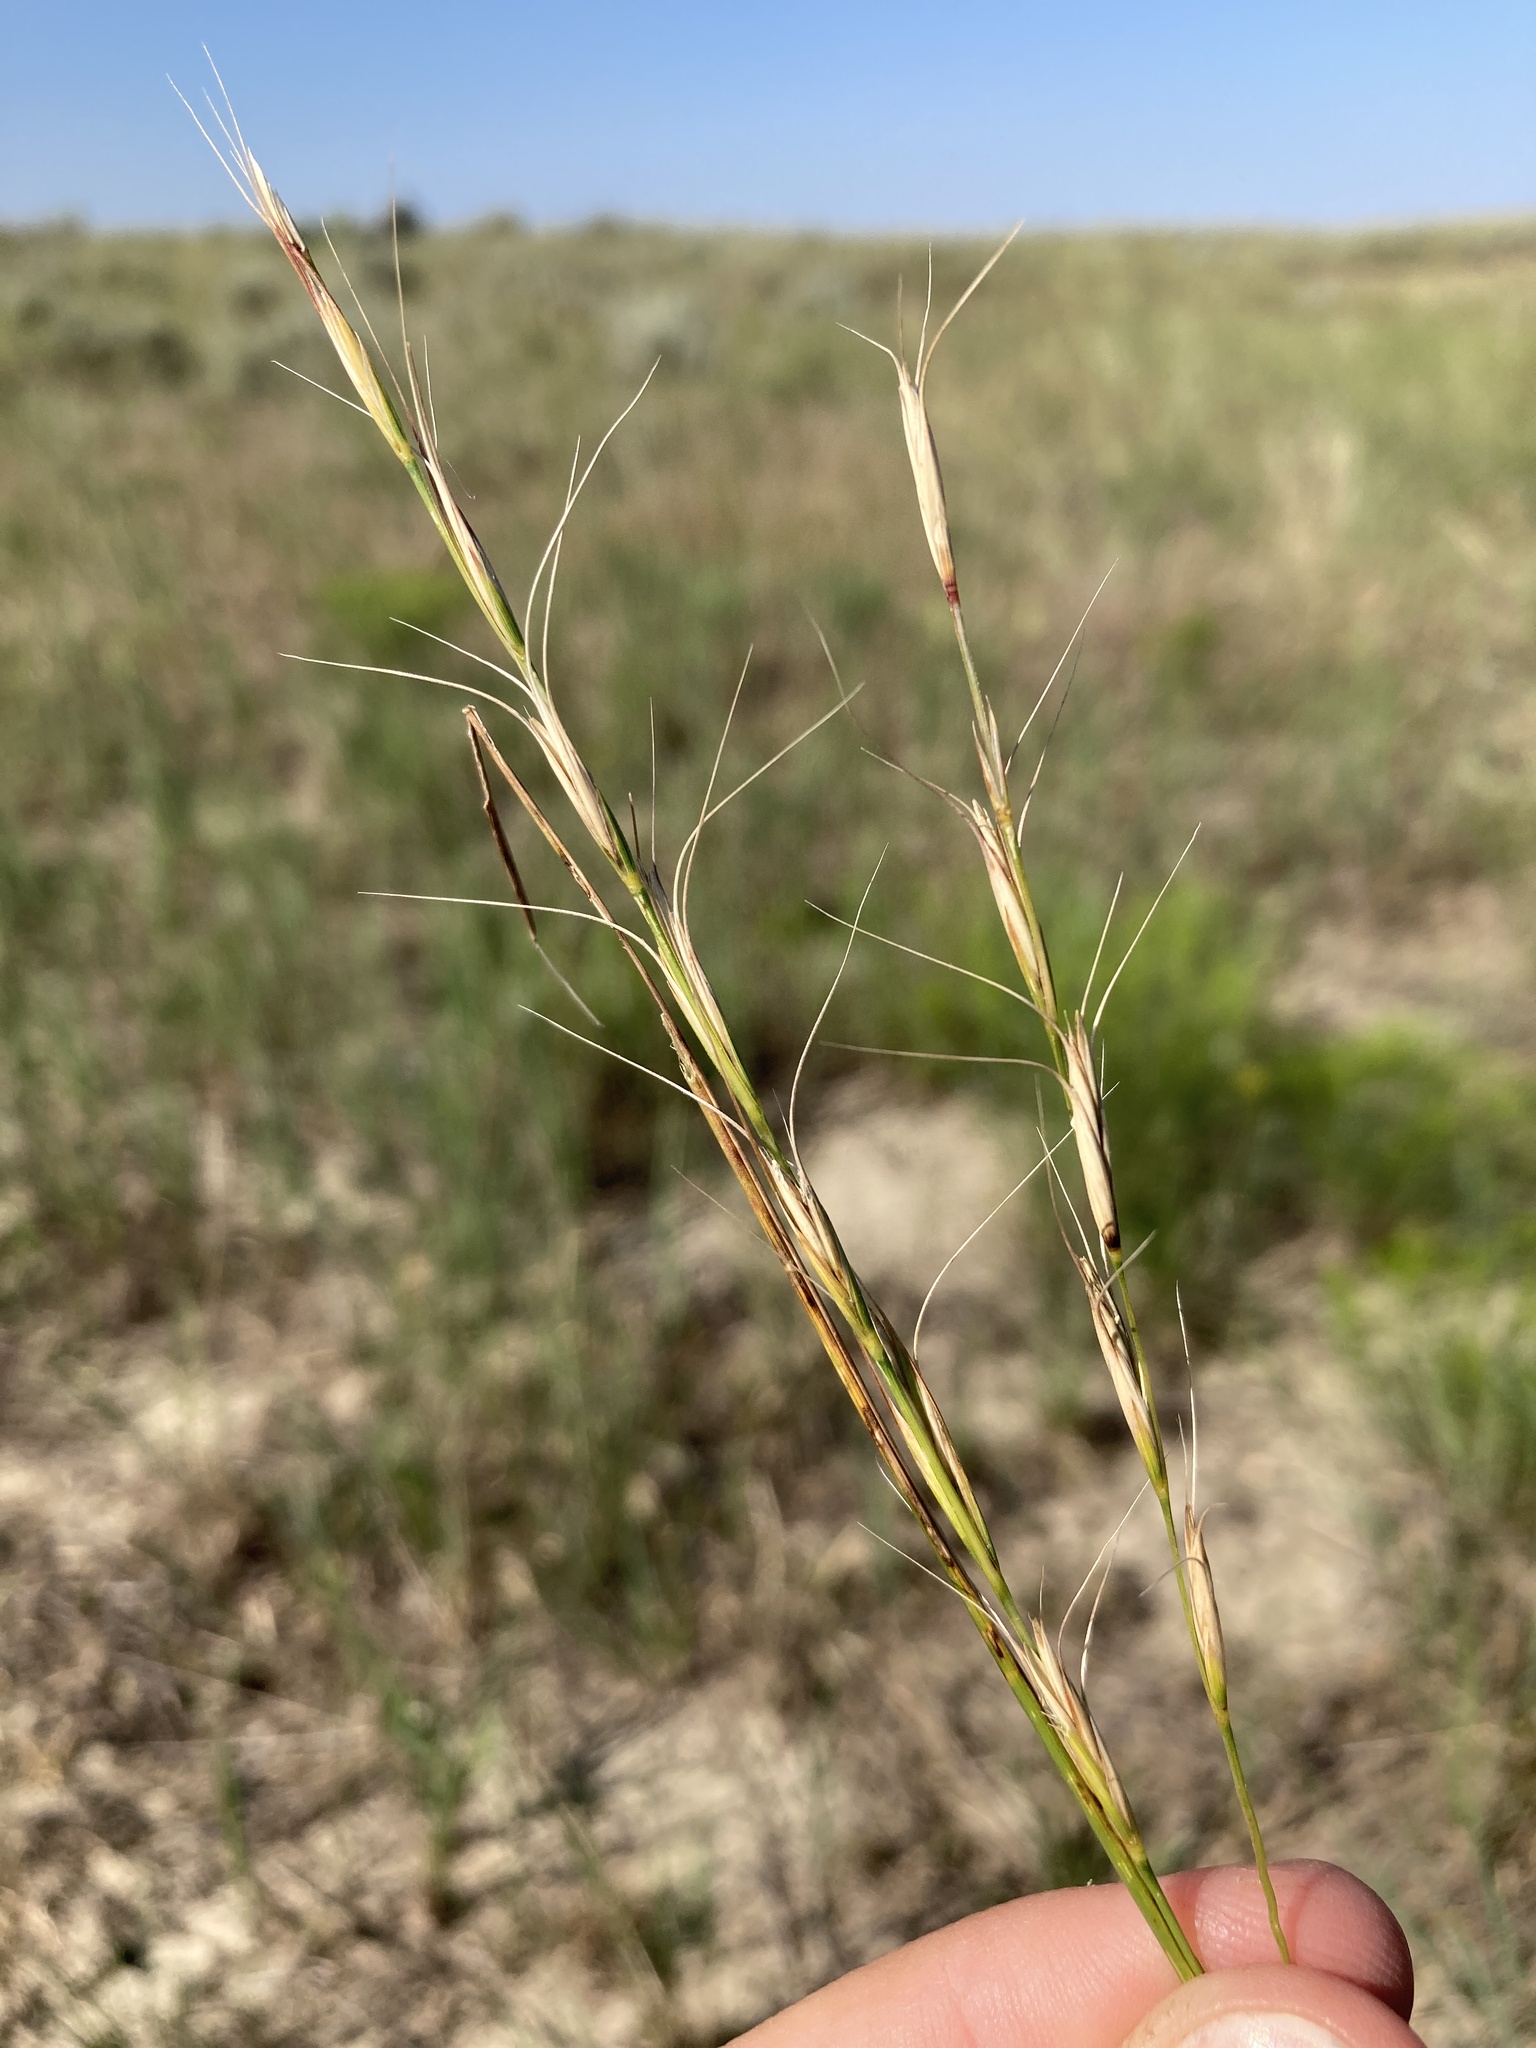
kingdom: Plantae
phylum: Tracheophyta
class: Liliopsida
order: Poales
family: Poaceae
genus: Pseudoroegneria
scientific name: Pseudoroegneria spicata
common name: Bluebunch wheatgrass
